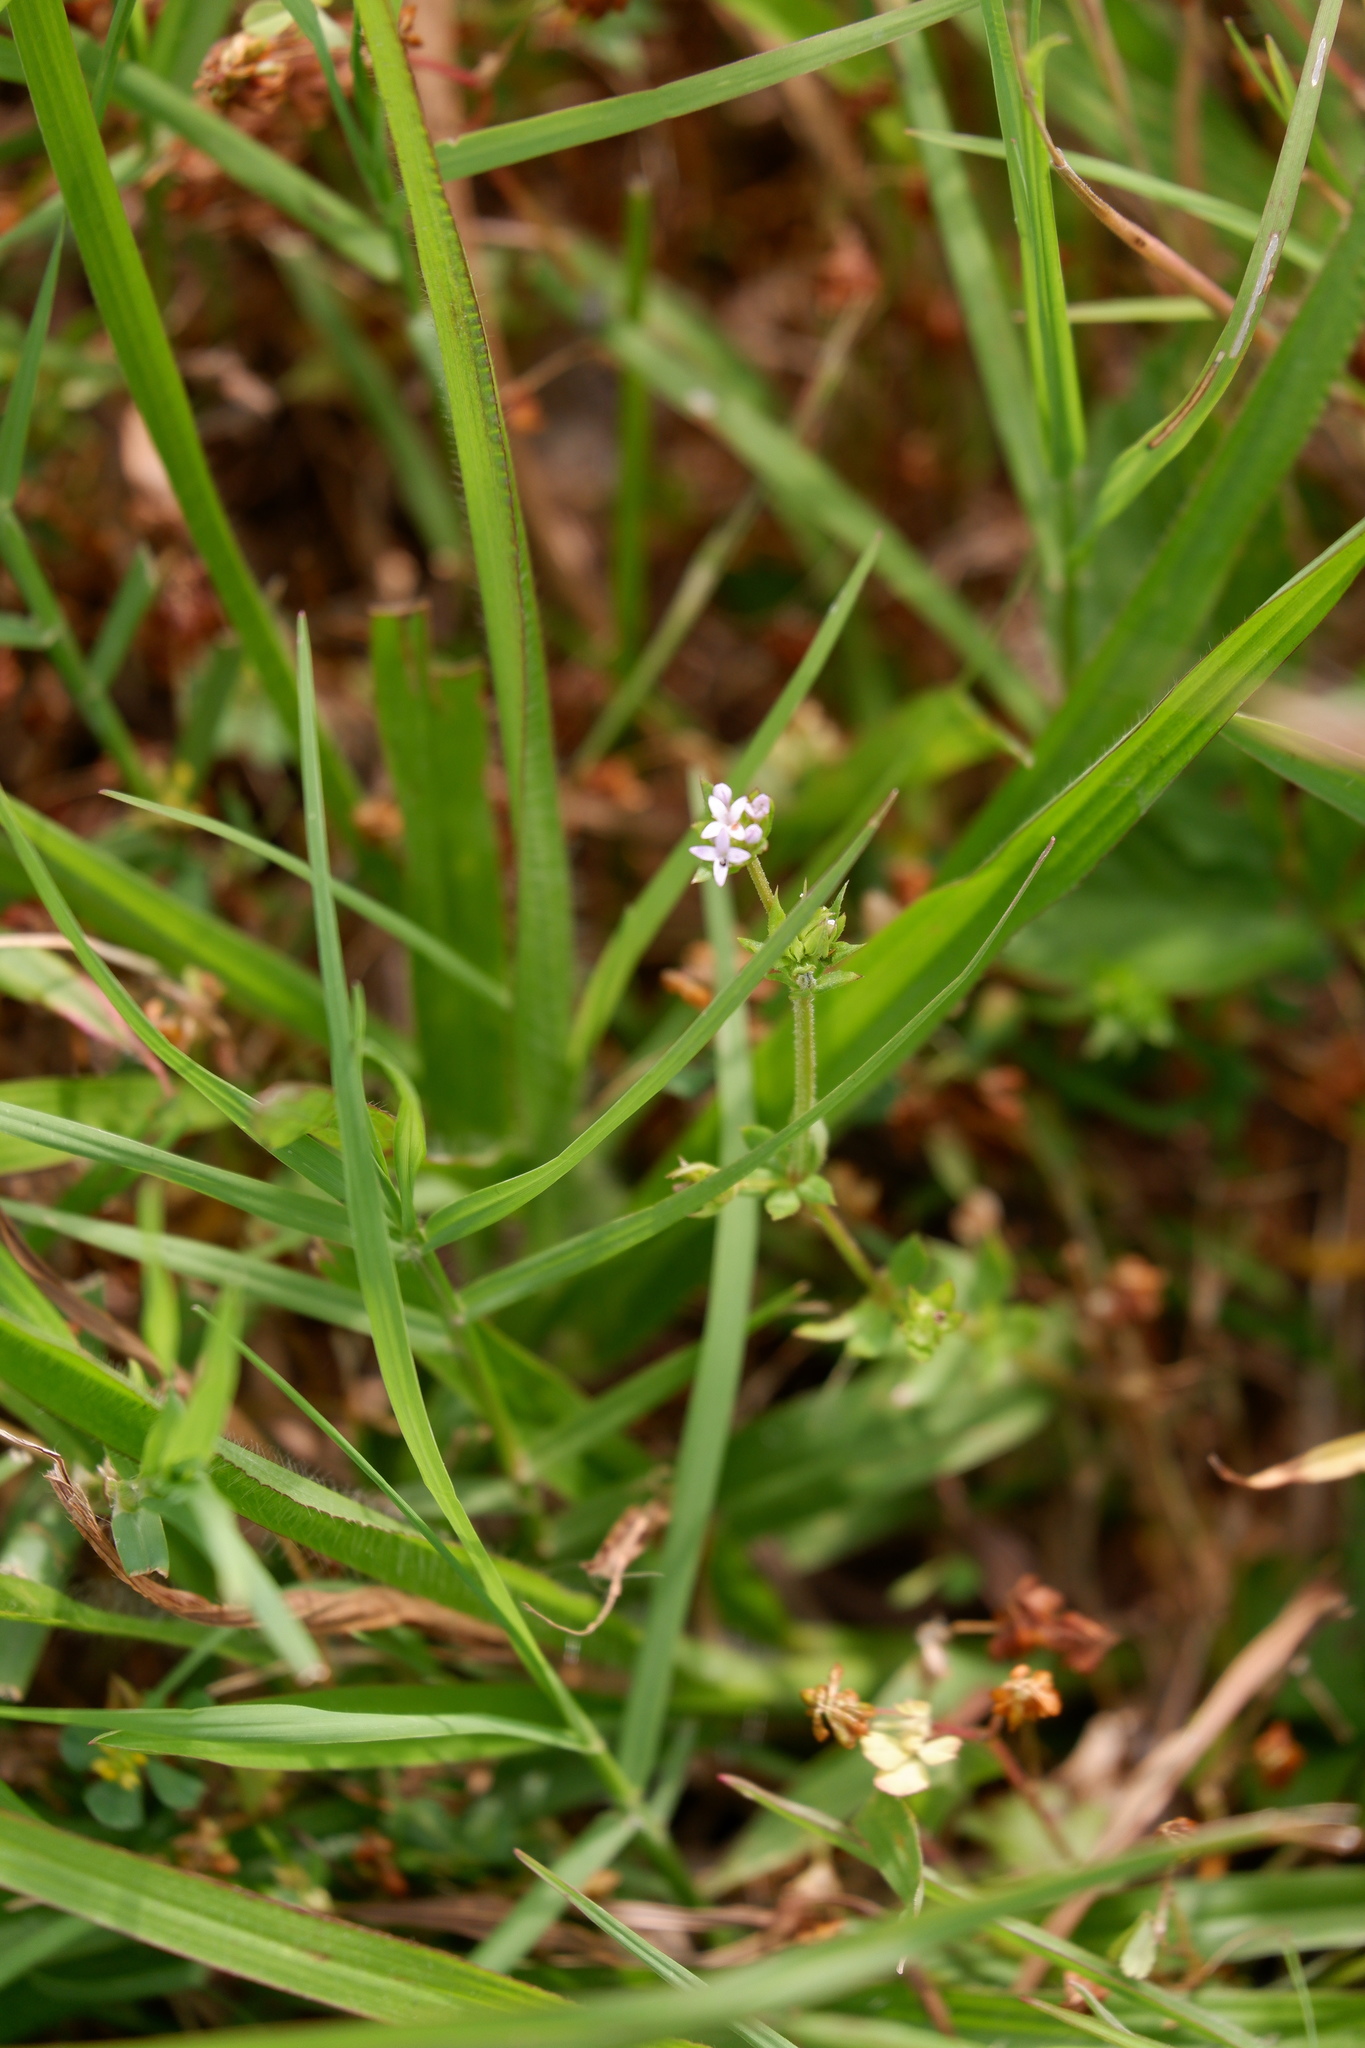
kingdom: Plantae
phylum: Tracheophyta
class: Magnoliopsida
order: Gentianales
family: Rubiaceae
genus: Sherardia
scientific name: Sherardia arvensis
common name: Field madder
